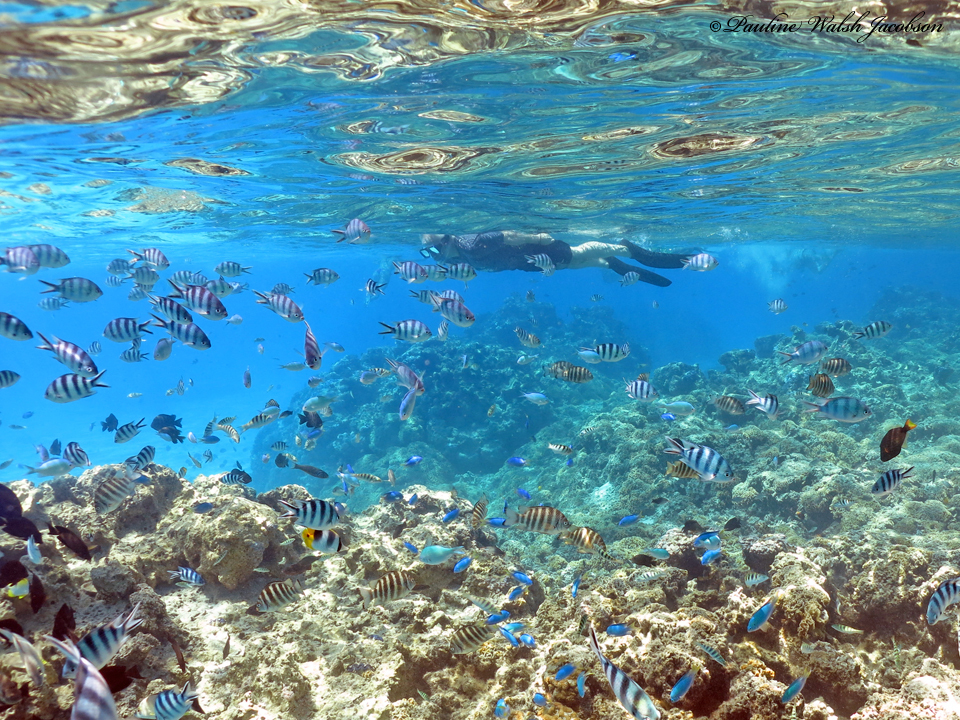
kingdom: Animalia
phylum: Chordata
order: Perciformes
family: Pomacentridae
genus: Abudefduf
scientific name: Abudefduf sexfasciatus
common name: Scissortail sergeant
